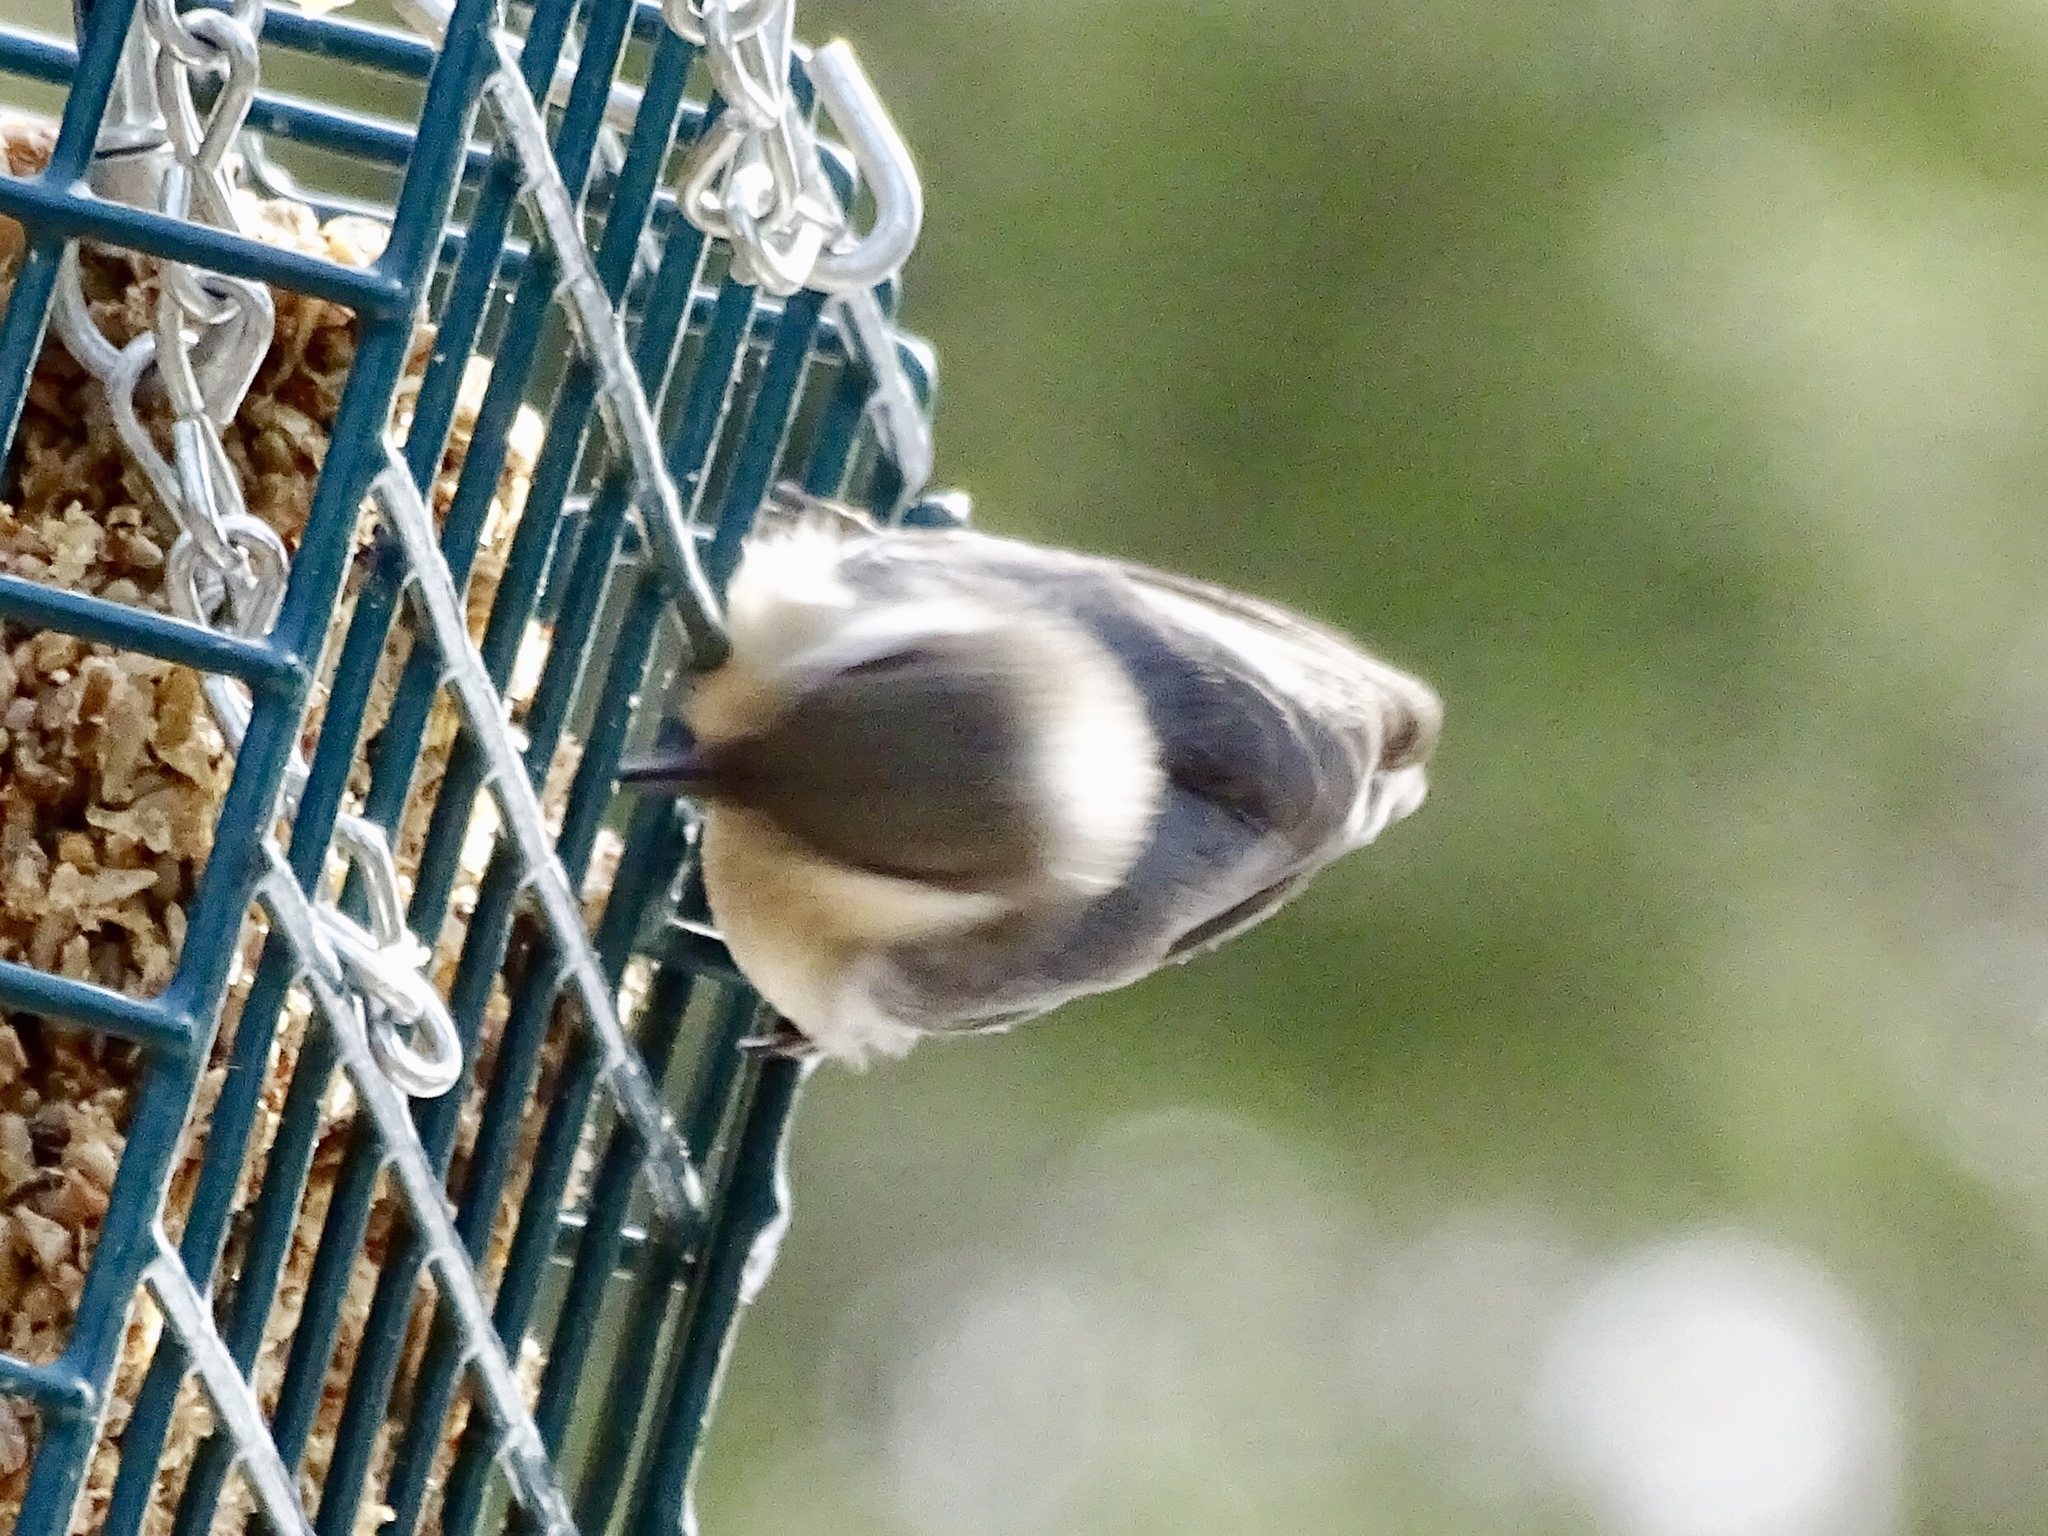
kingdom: Animalia
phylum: Chordata
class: Aves
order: Passeriformes
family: Sittidae
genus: Sitta
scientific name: Sitta pygmaea
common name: Pygmy nuthatch
